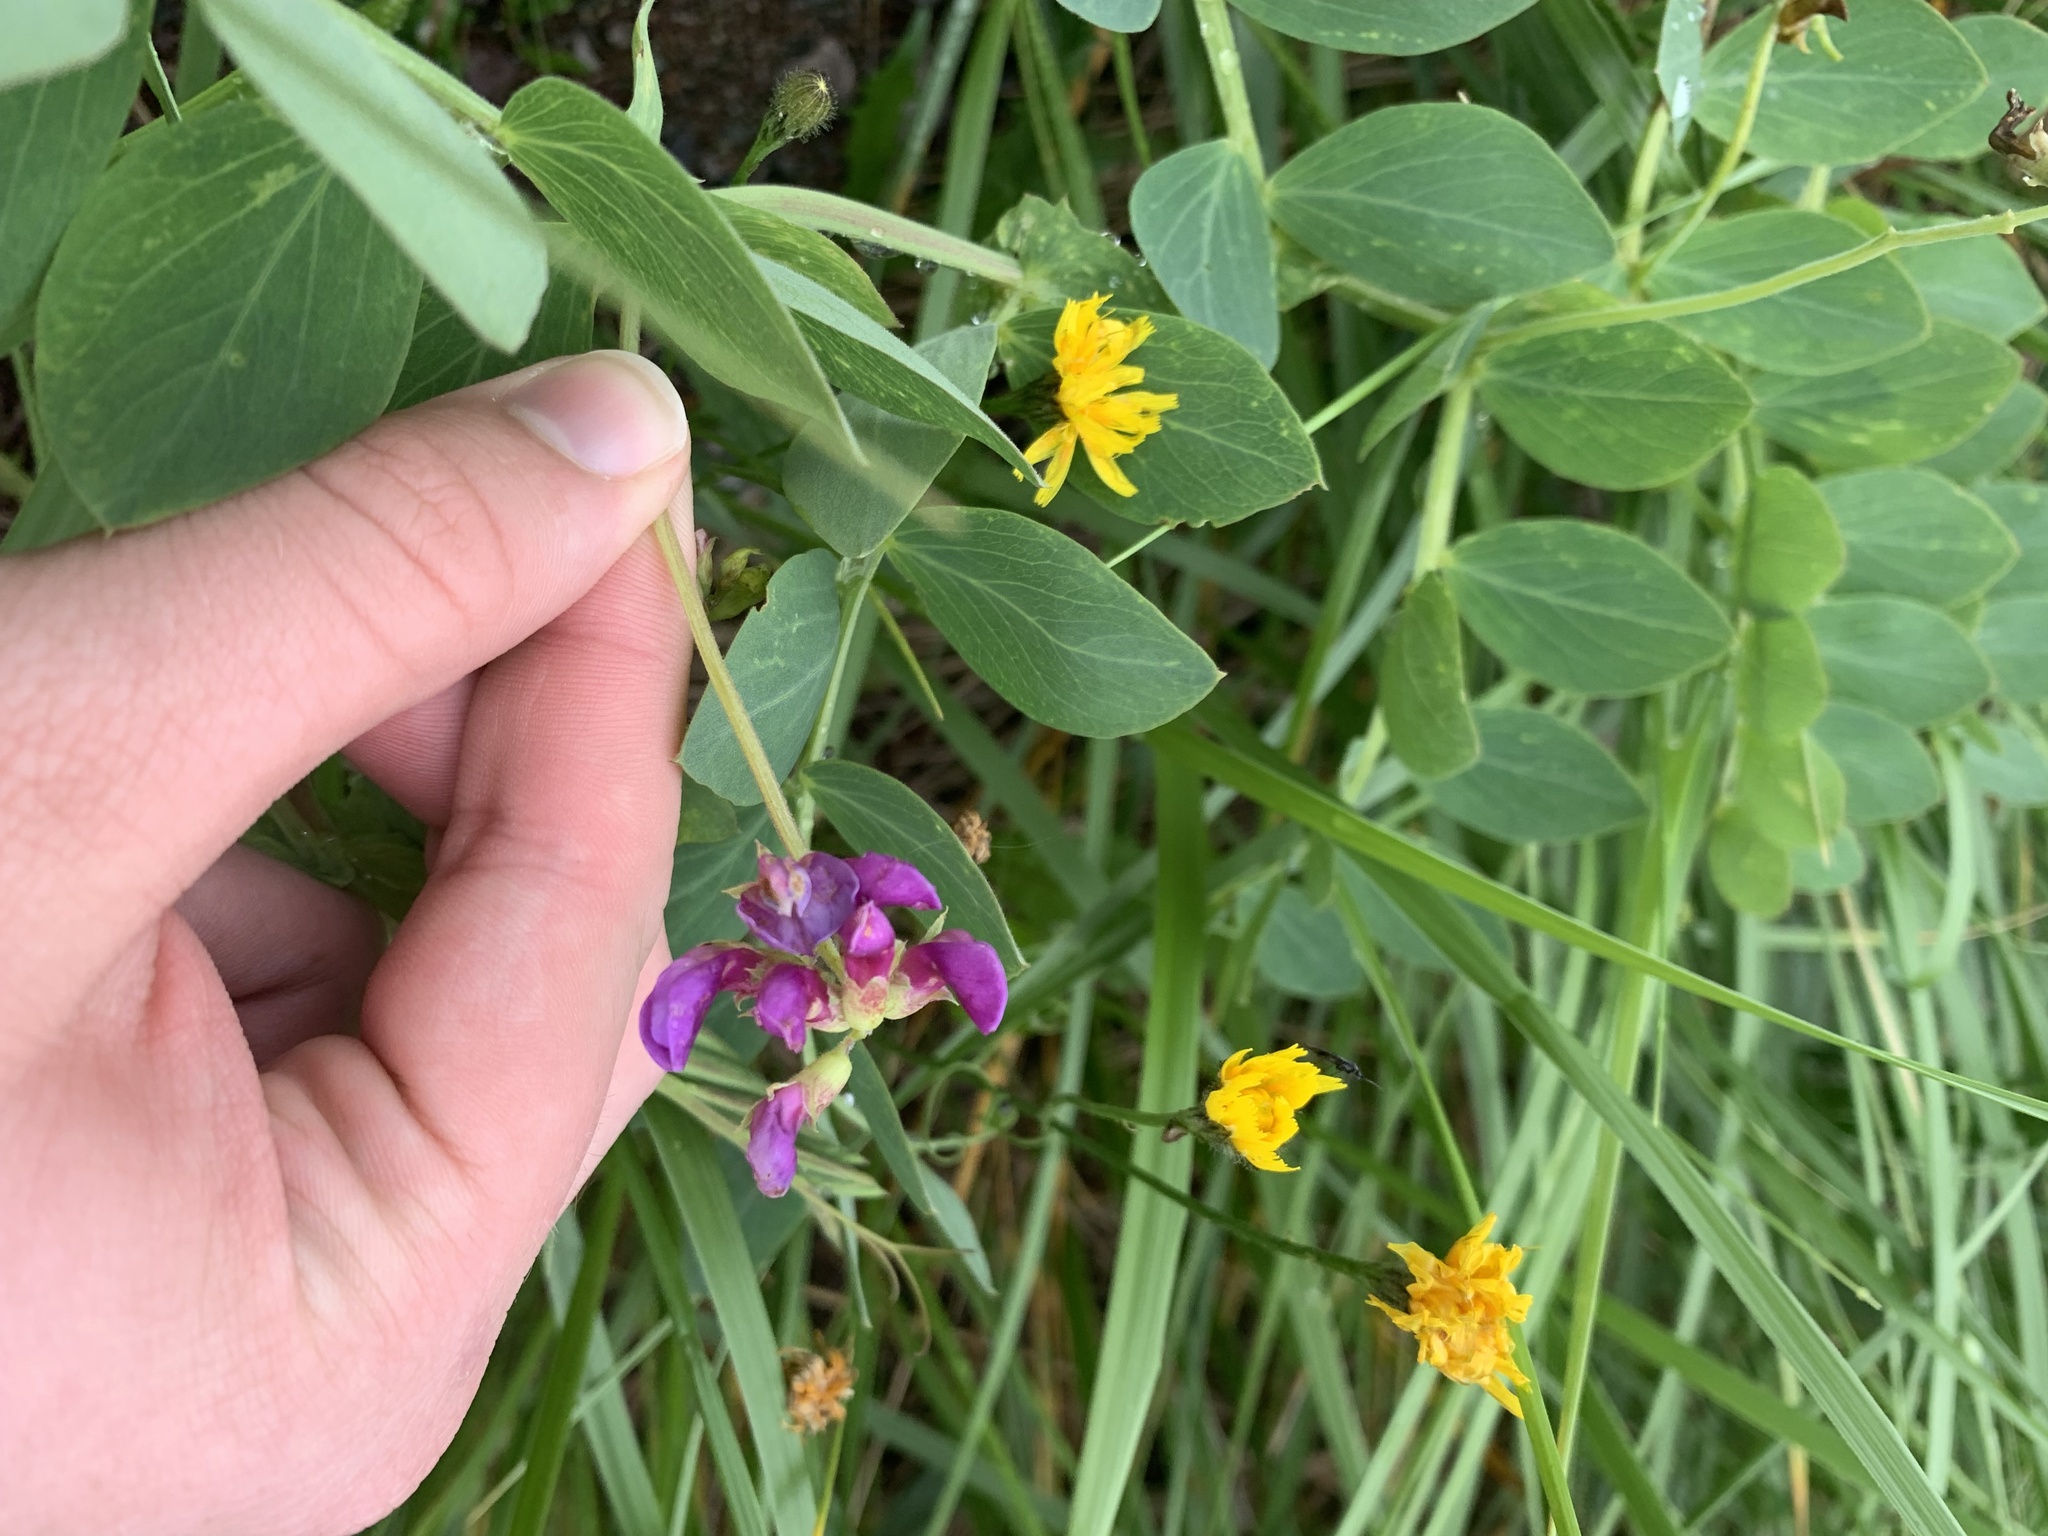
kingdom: Plantae
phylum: Tracheophyta
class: Magnoliopsida
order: Fabales
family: Fabaceae
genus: Lathyrus
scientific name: Lathyrus japonicus
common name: Sea pea
